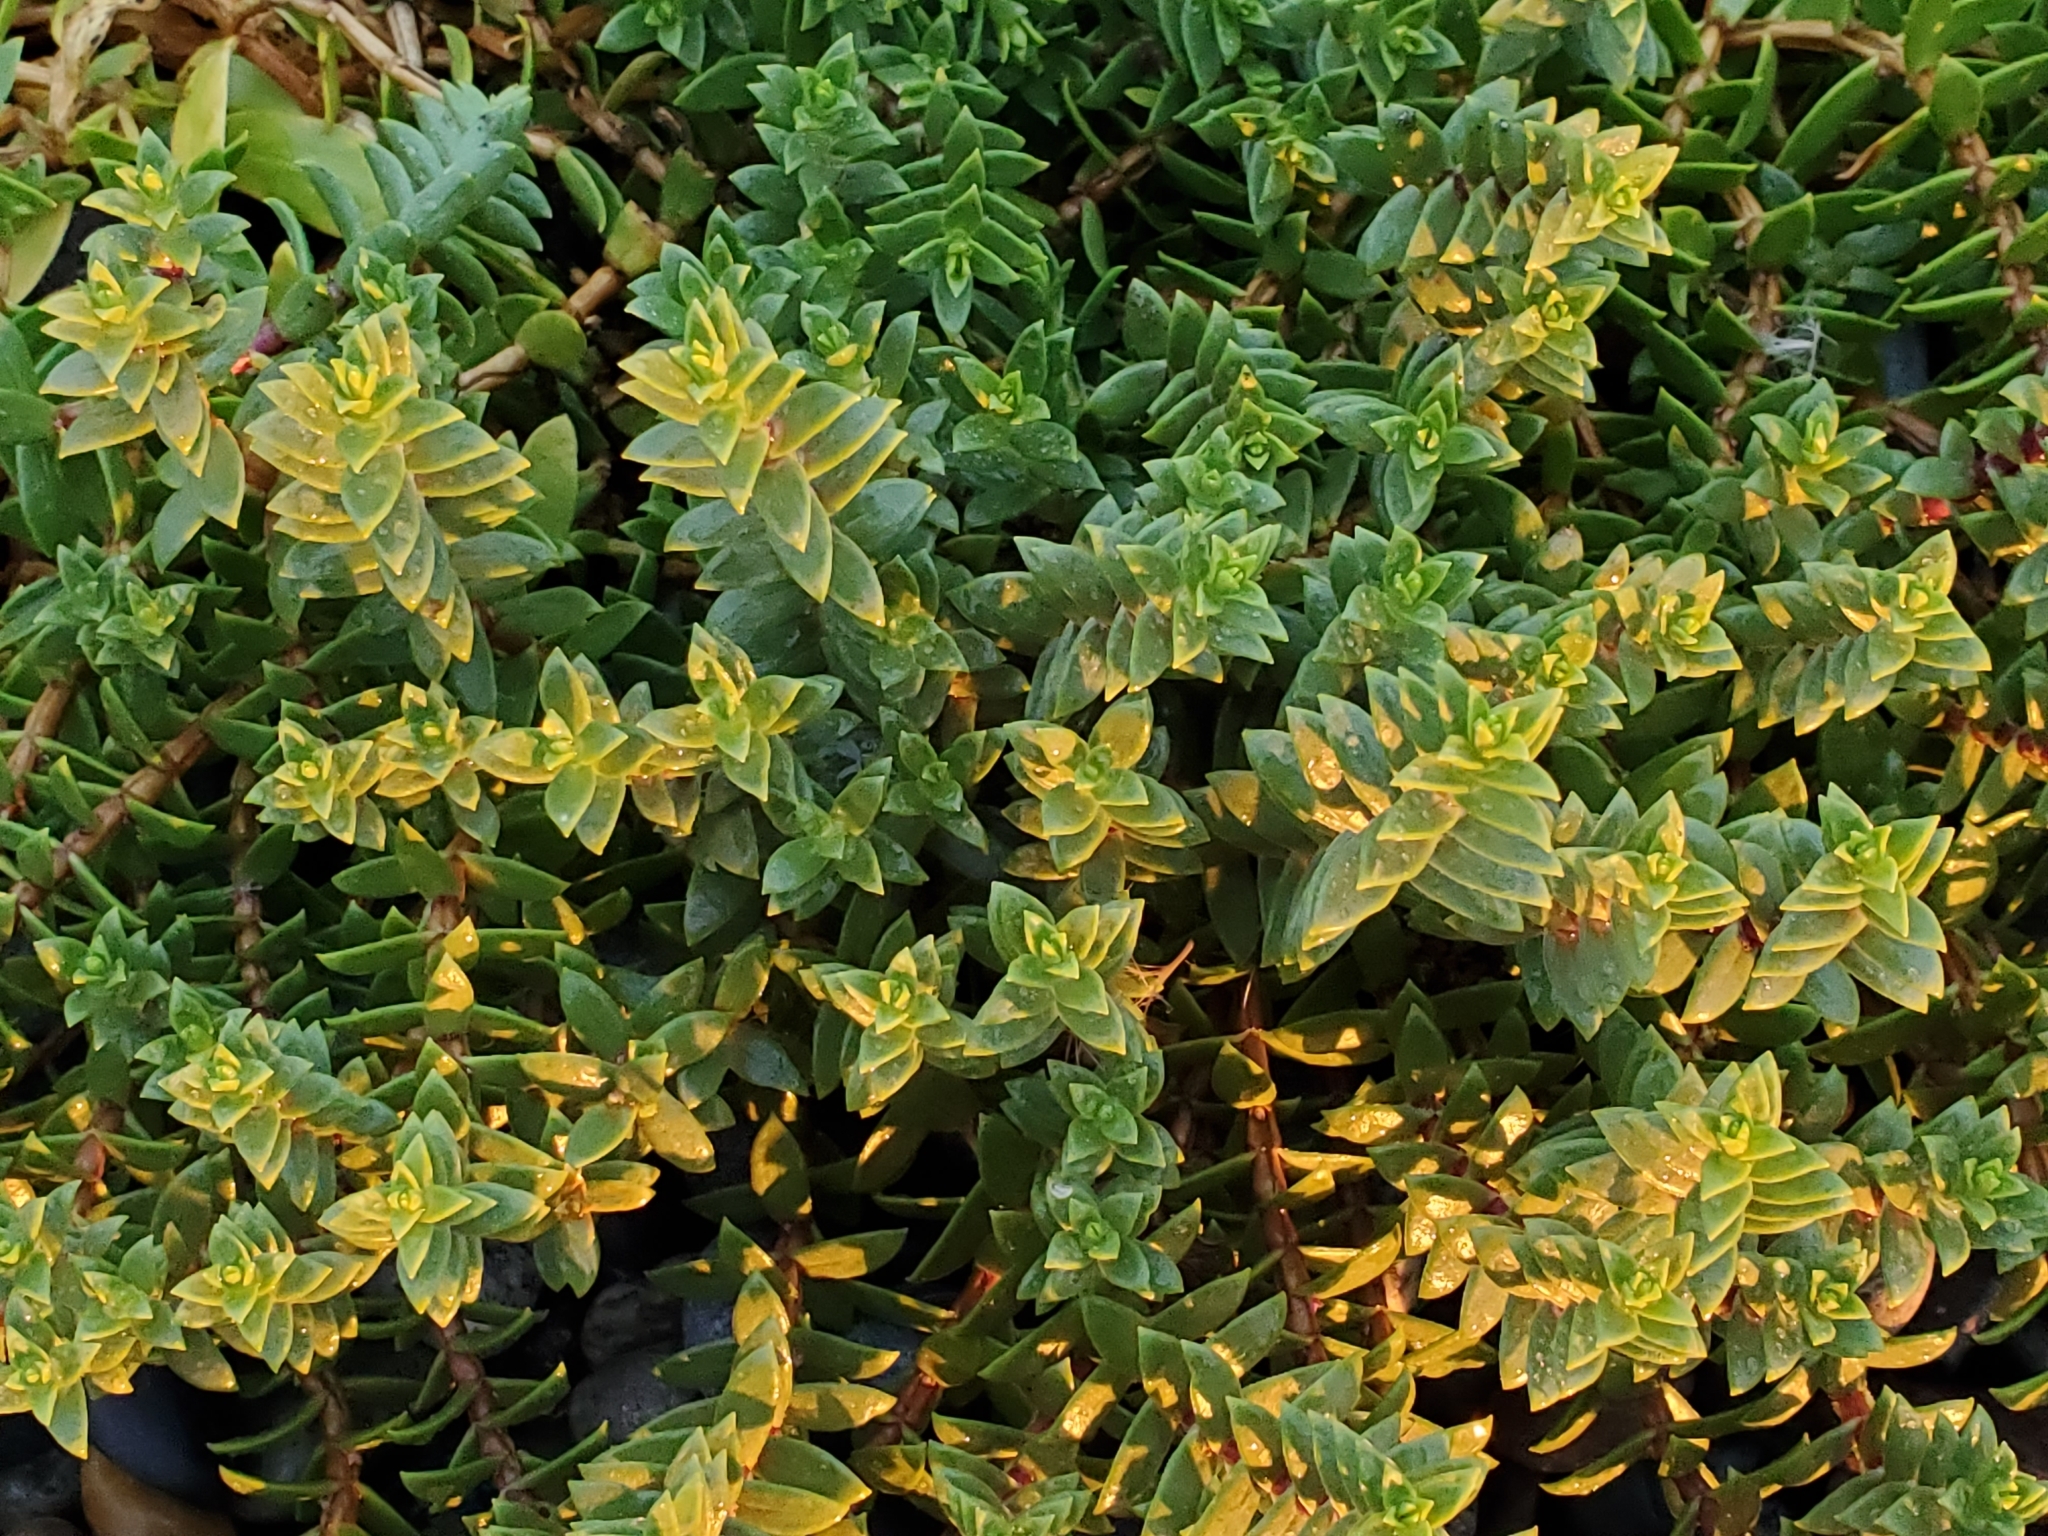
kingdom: Plantae
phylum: Tracheophyta
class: Magnoliopsida
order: Caryophyllales
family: Caryophyllaceae
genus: Honckenya
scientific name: Honckenya peploides
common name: Sea sandwort
